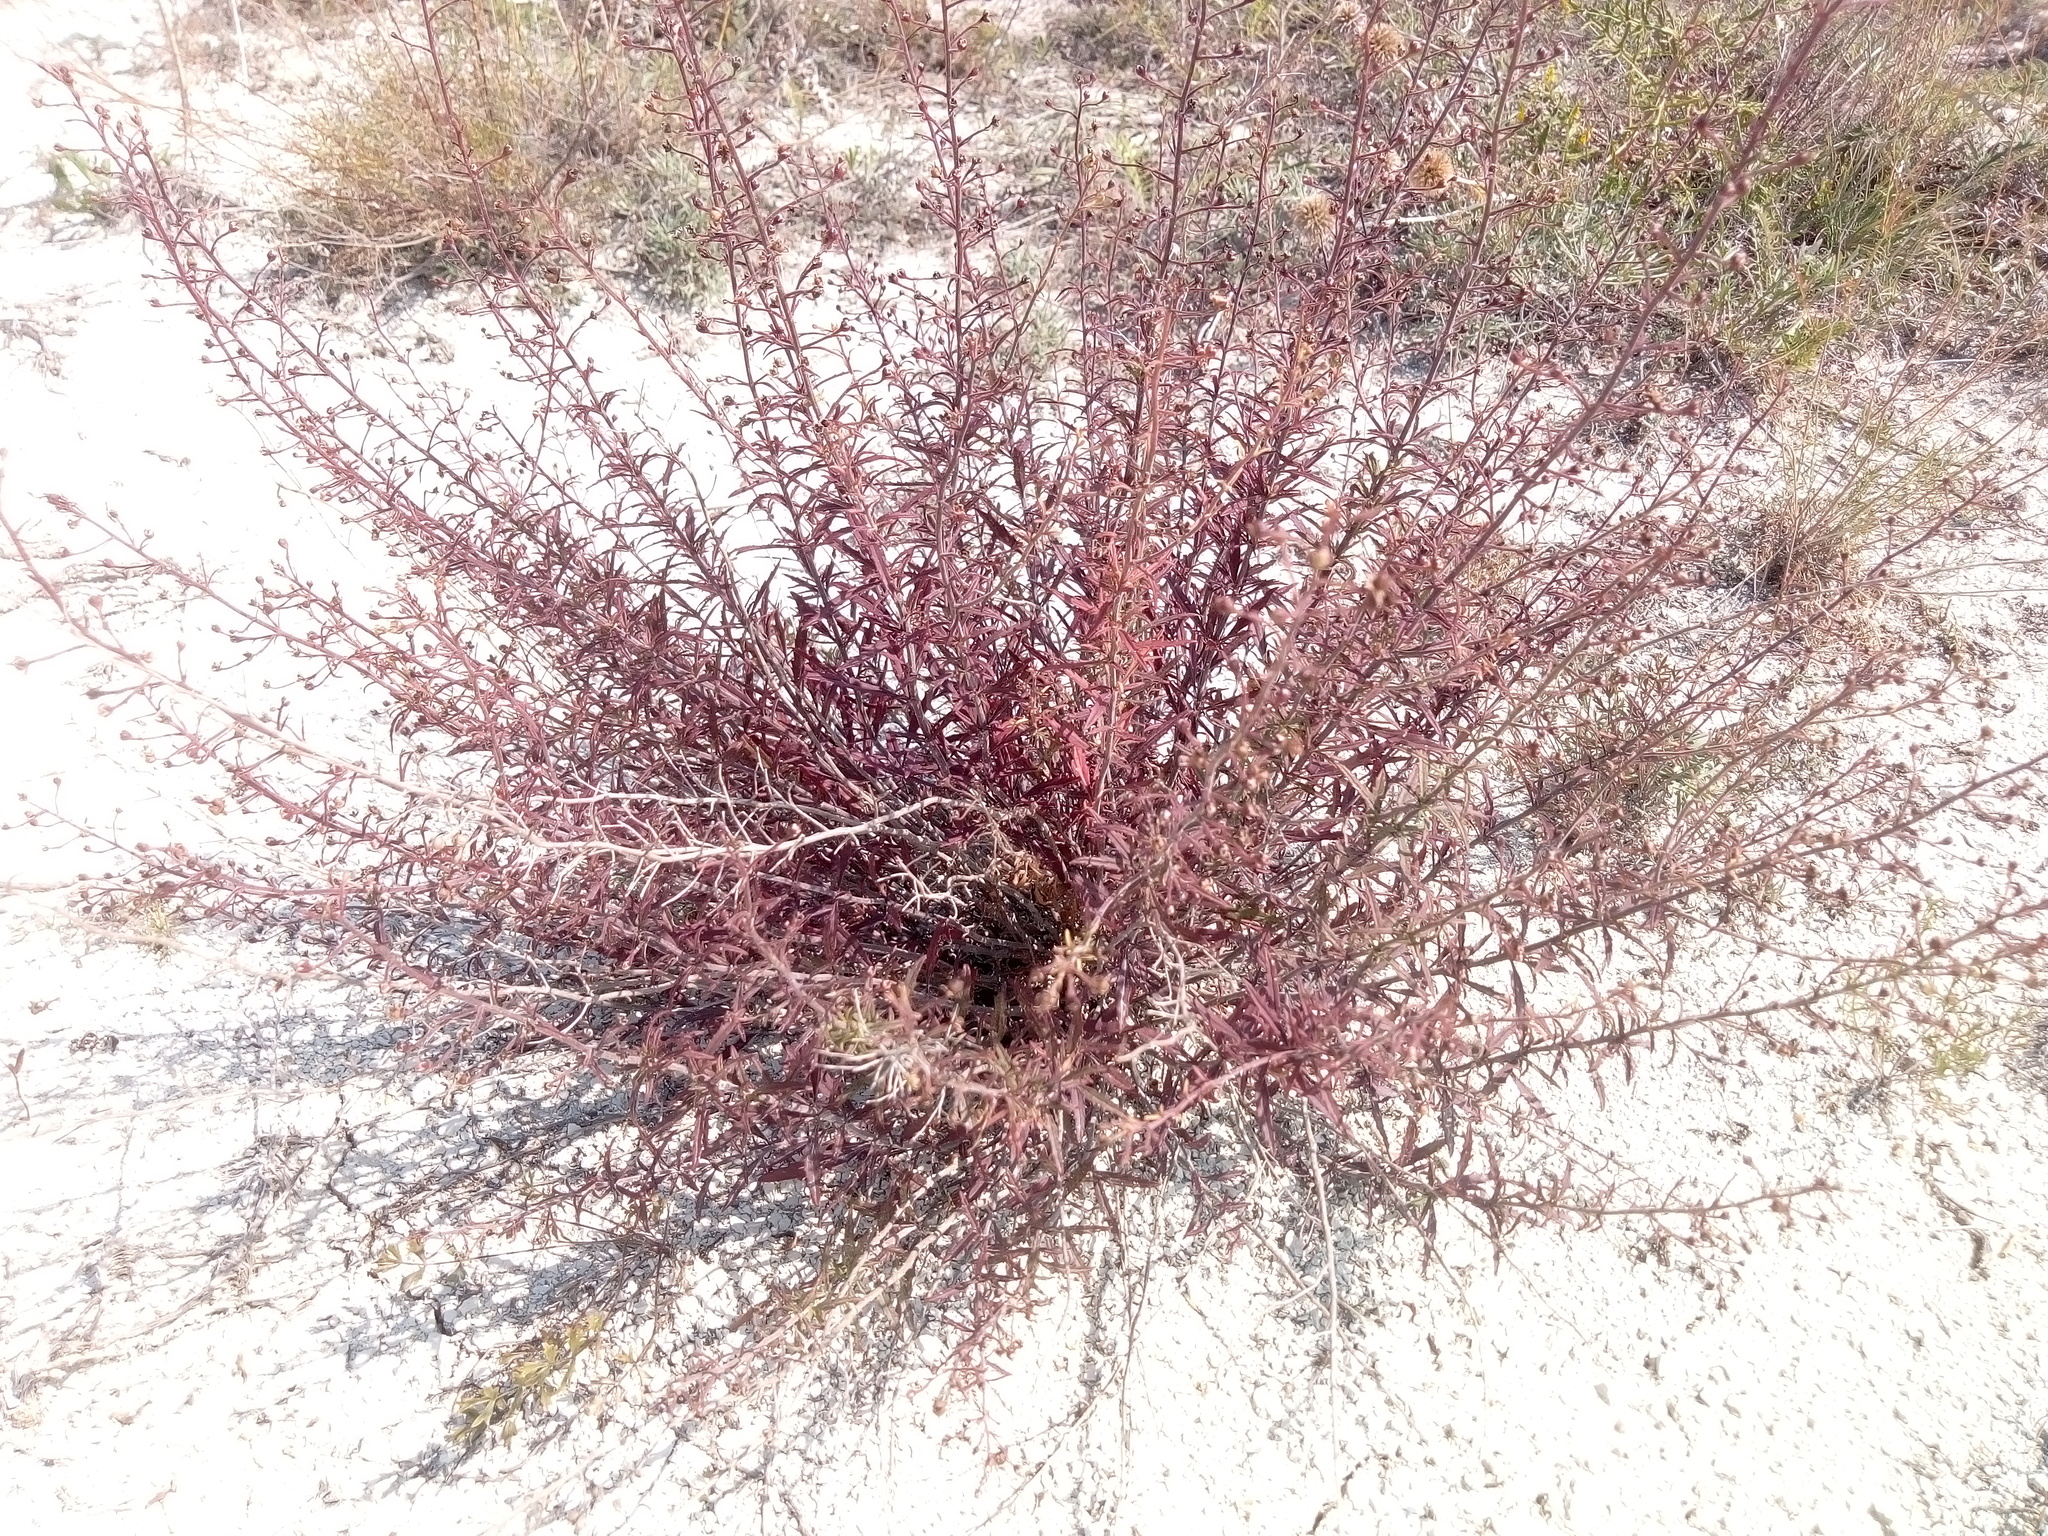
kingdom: Plantae
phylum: Tracheophyta
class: Magnoliopsida
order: Lamiales
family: Scrophulariaceae
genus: Scrophularia
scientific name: Scrophularia cretacea
